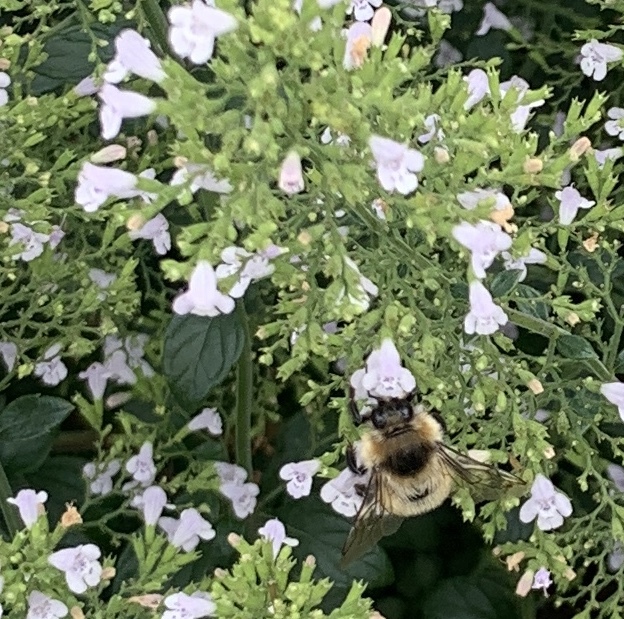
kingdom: Animalia
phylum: Arthropoda
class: Insecta
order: Hymenoptera
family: Apidae
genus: Bombus
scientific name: Bombus rufocinctus
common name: Red-belted bumble bee
